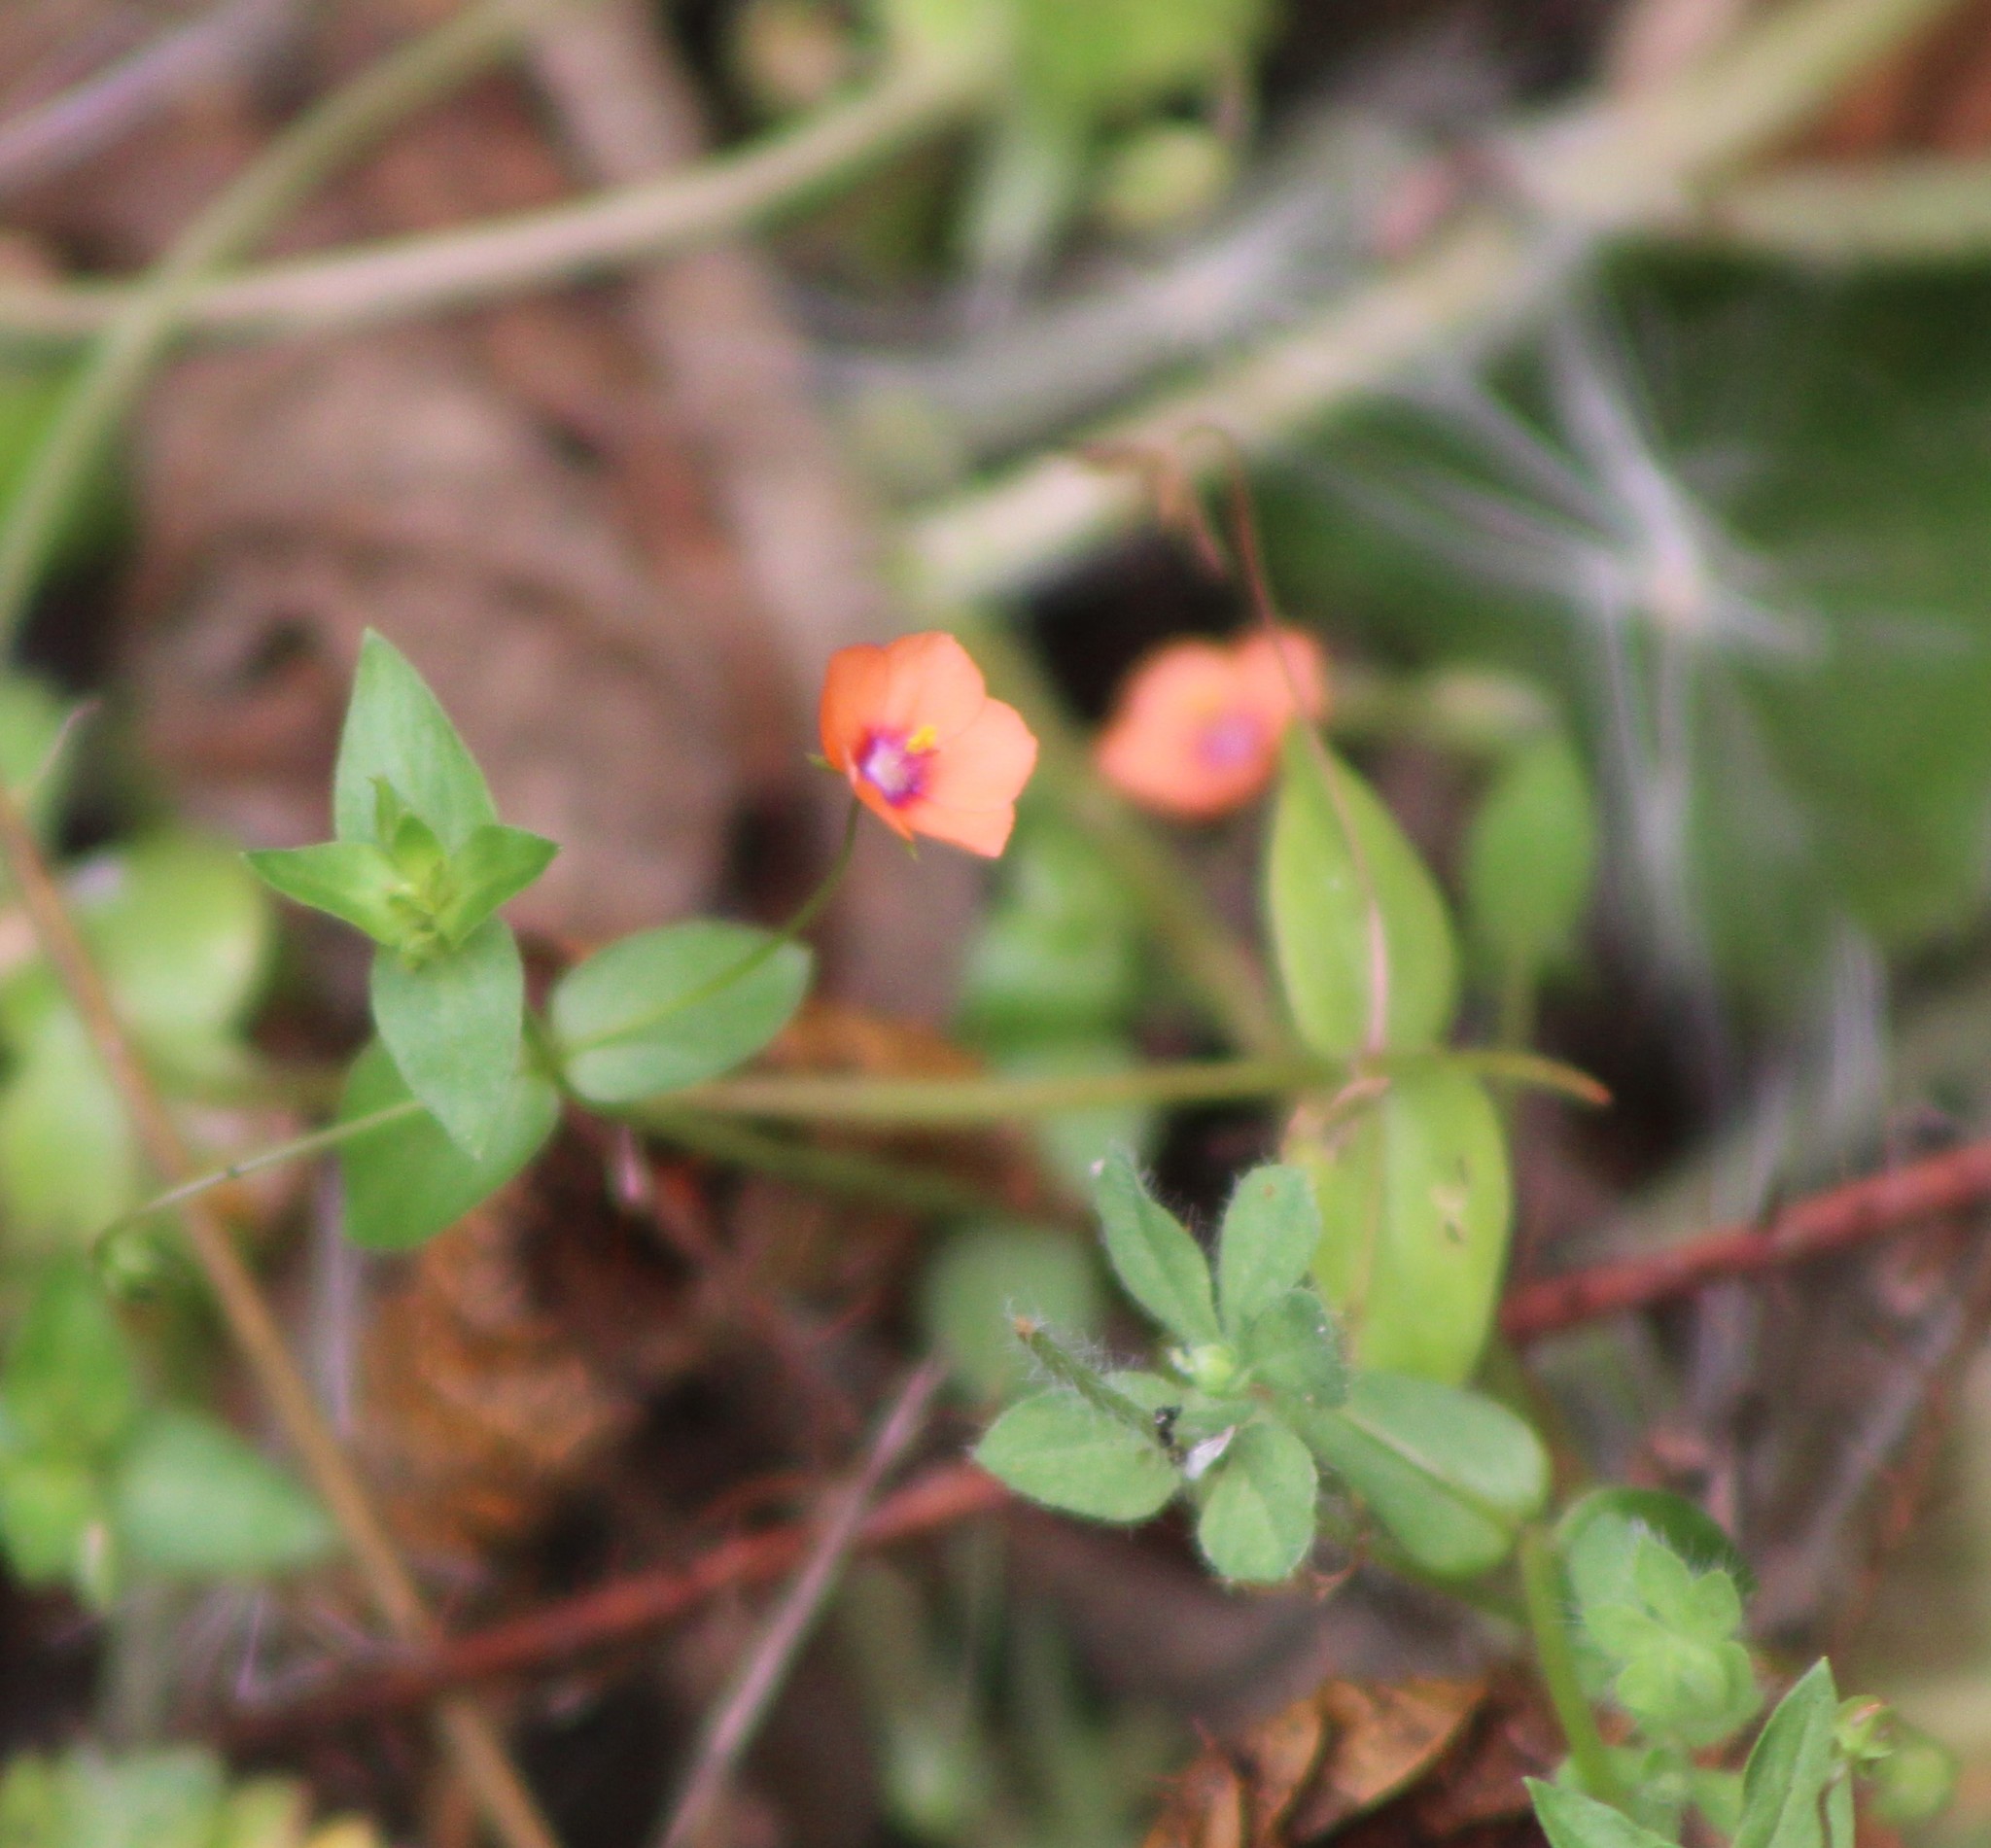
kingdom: Plantae
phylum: Tracheophyta
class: Magnoliopsida
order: Ericales
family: Primulaceae
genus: Lysimachia
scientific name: Lysimachia arvensis
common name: Scarlet pimpernel
